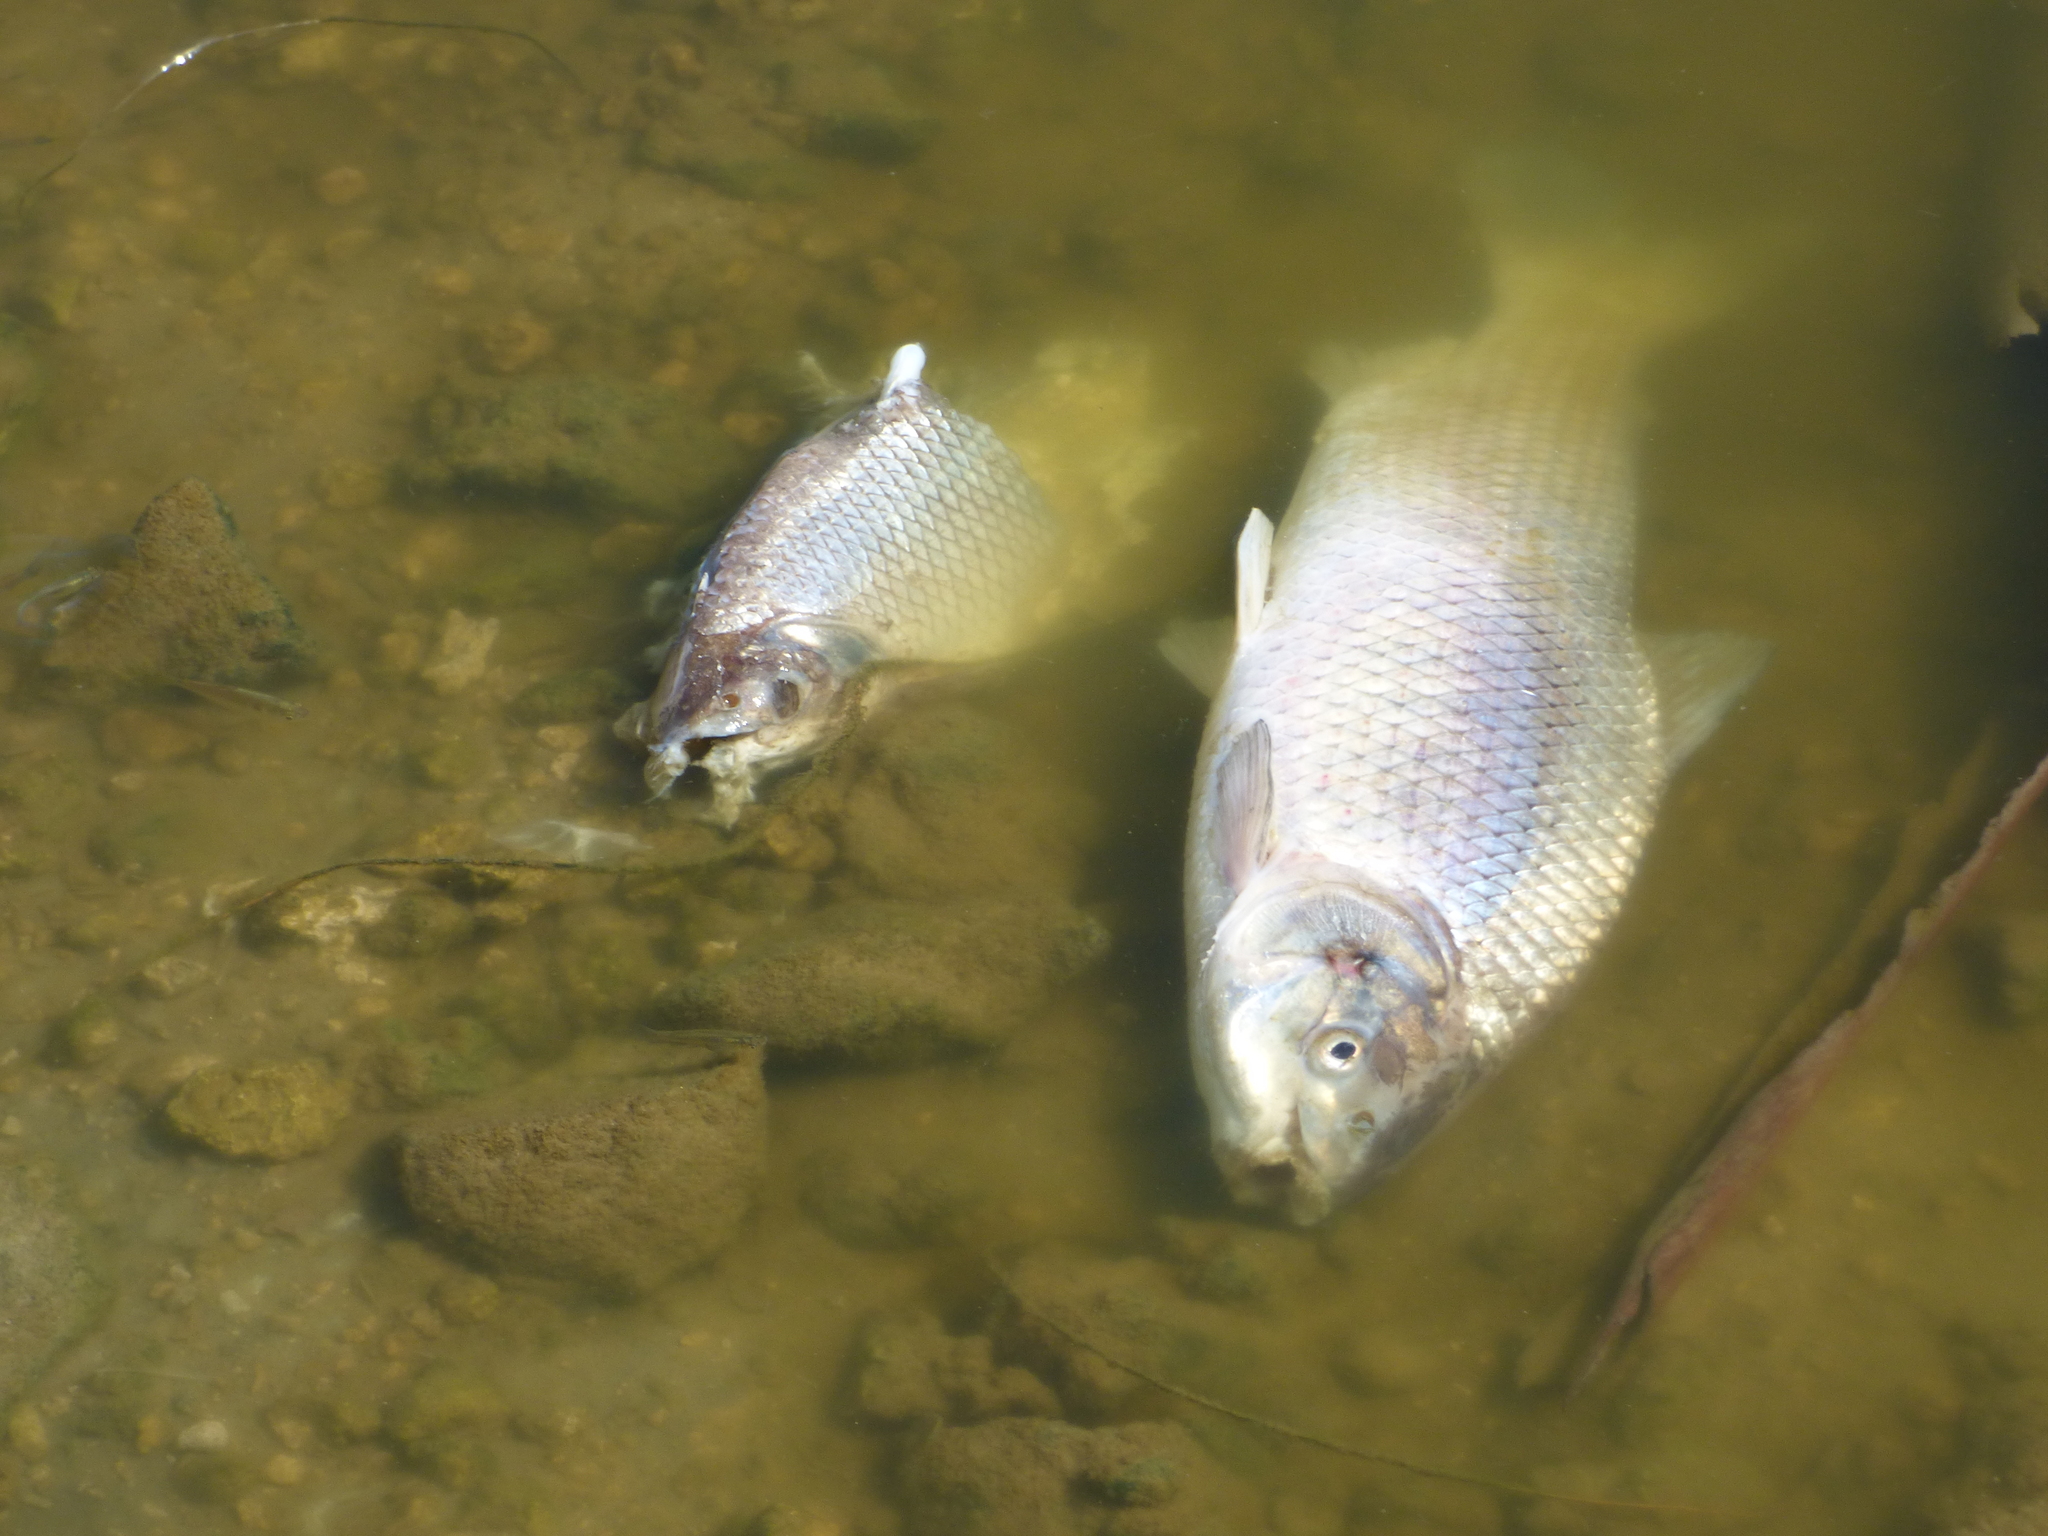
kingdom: Animalia
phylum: Chordata
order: Characiformes
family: Prochilodontidae
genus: Prochilodus
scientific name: Prochilodus lineatus
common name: Curimbata
